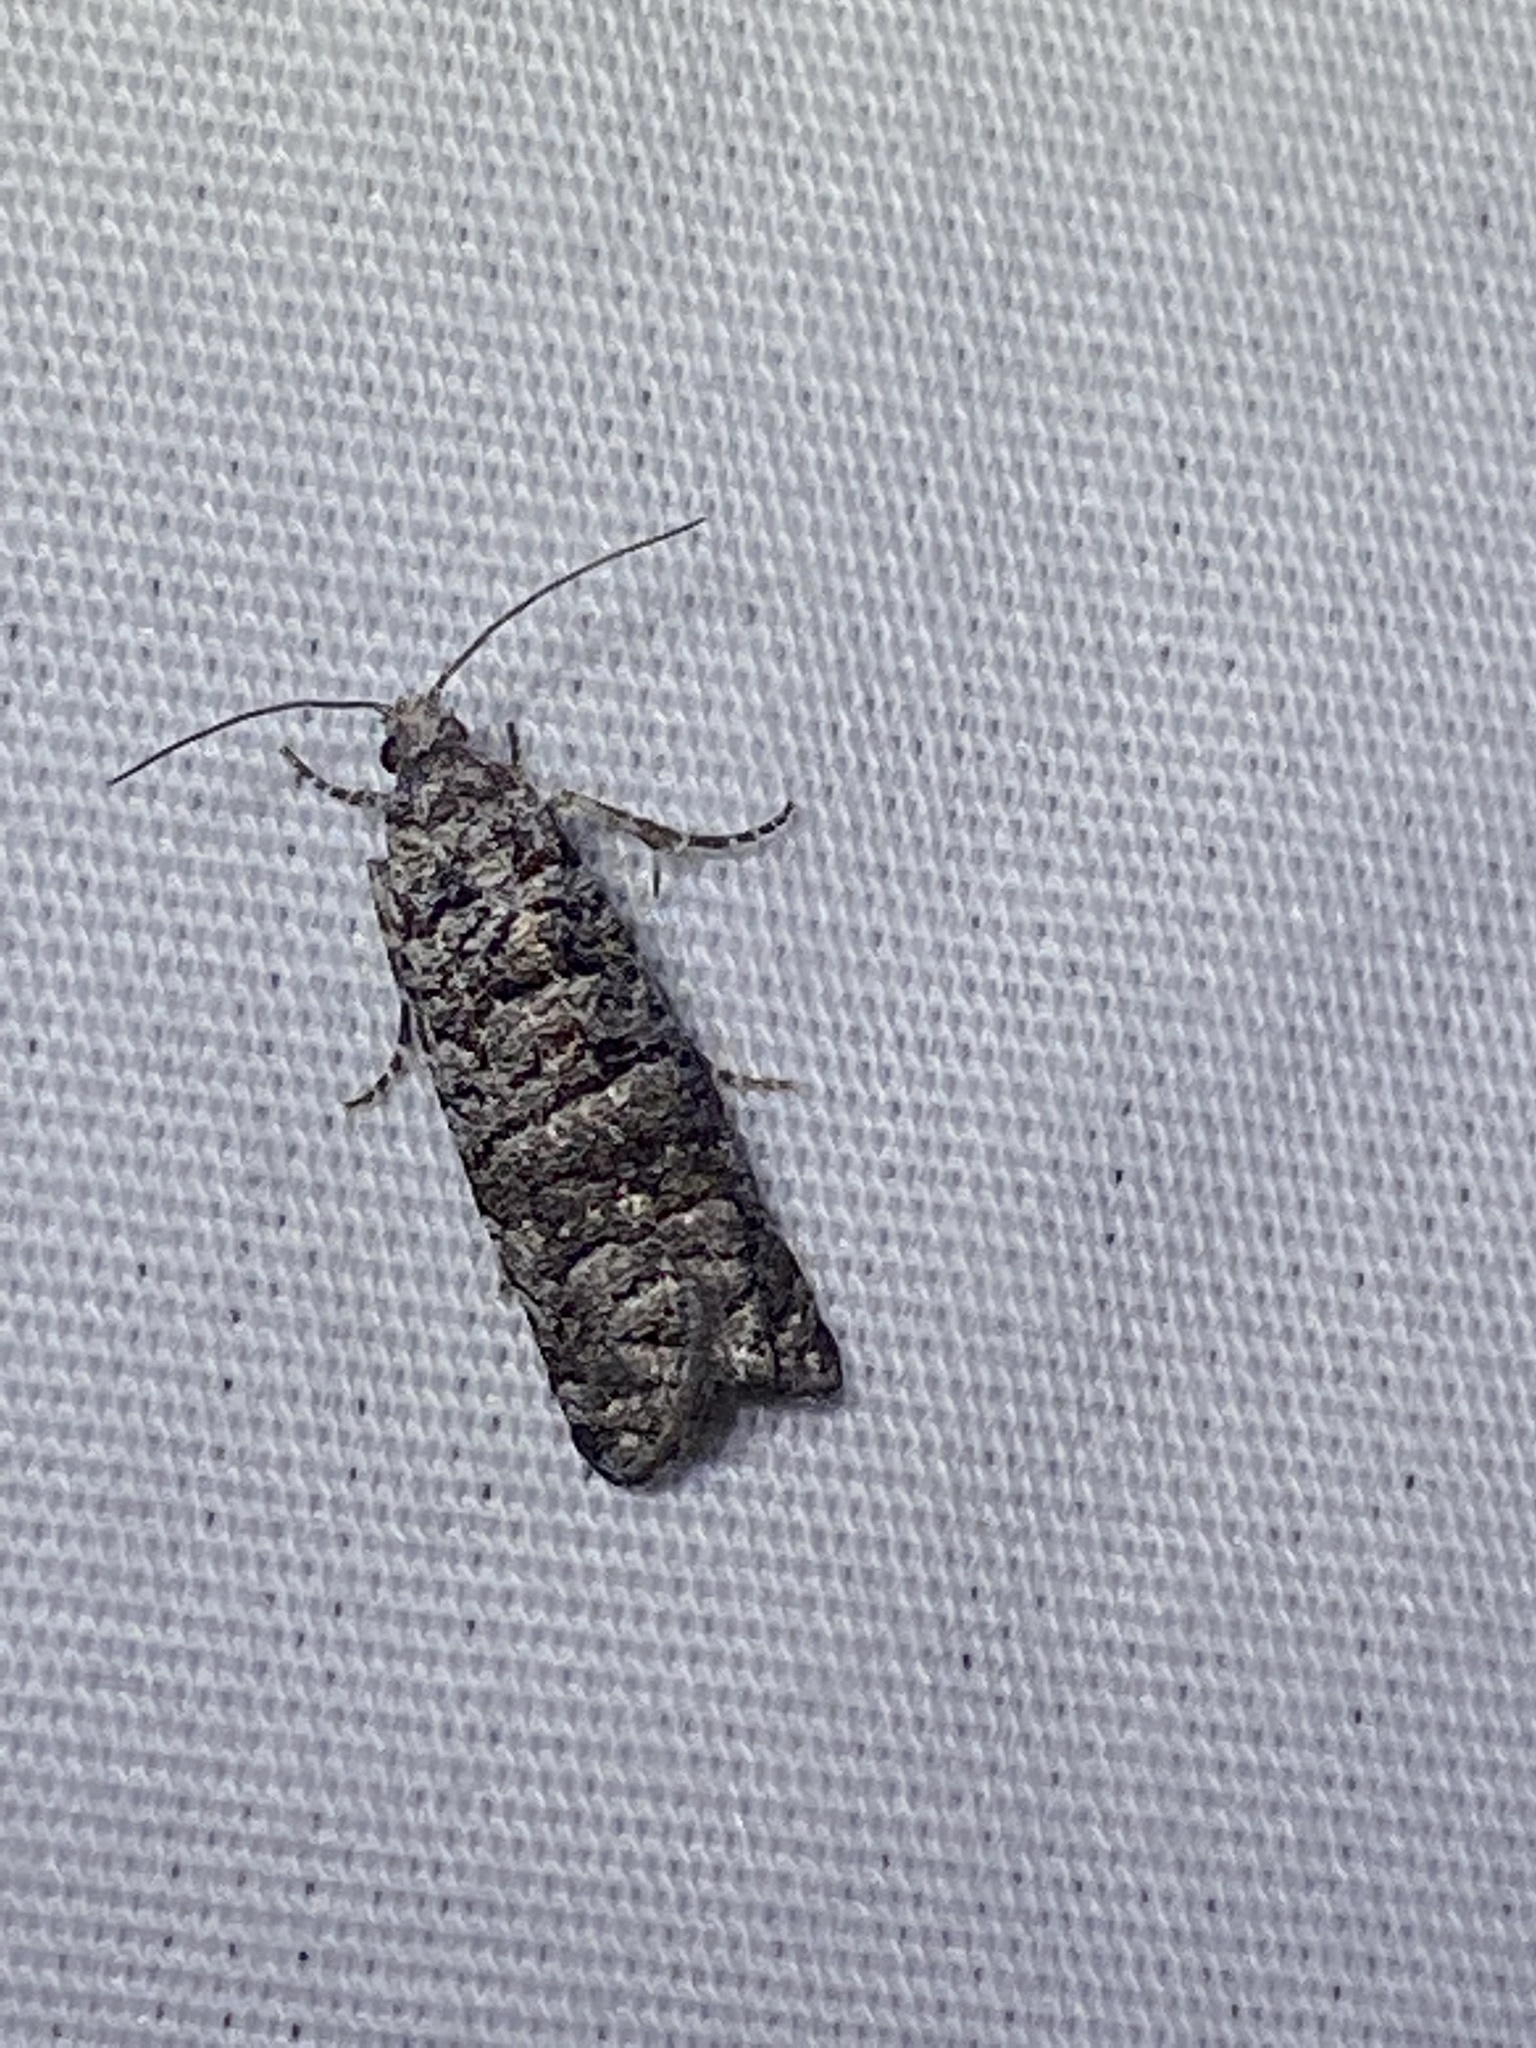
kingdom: Animalia
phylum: Arthropoda
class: Insecta
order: Lepidoptera
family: Tortricidae
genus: Retinia
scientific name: Retinia gemistrigulana
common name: Gray retinia moth
